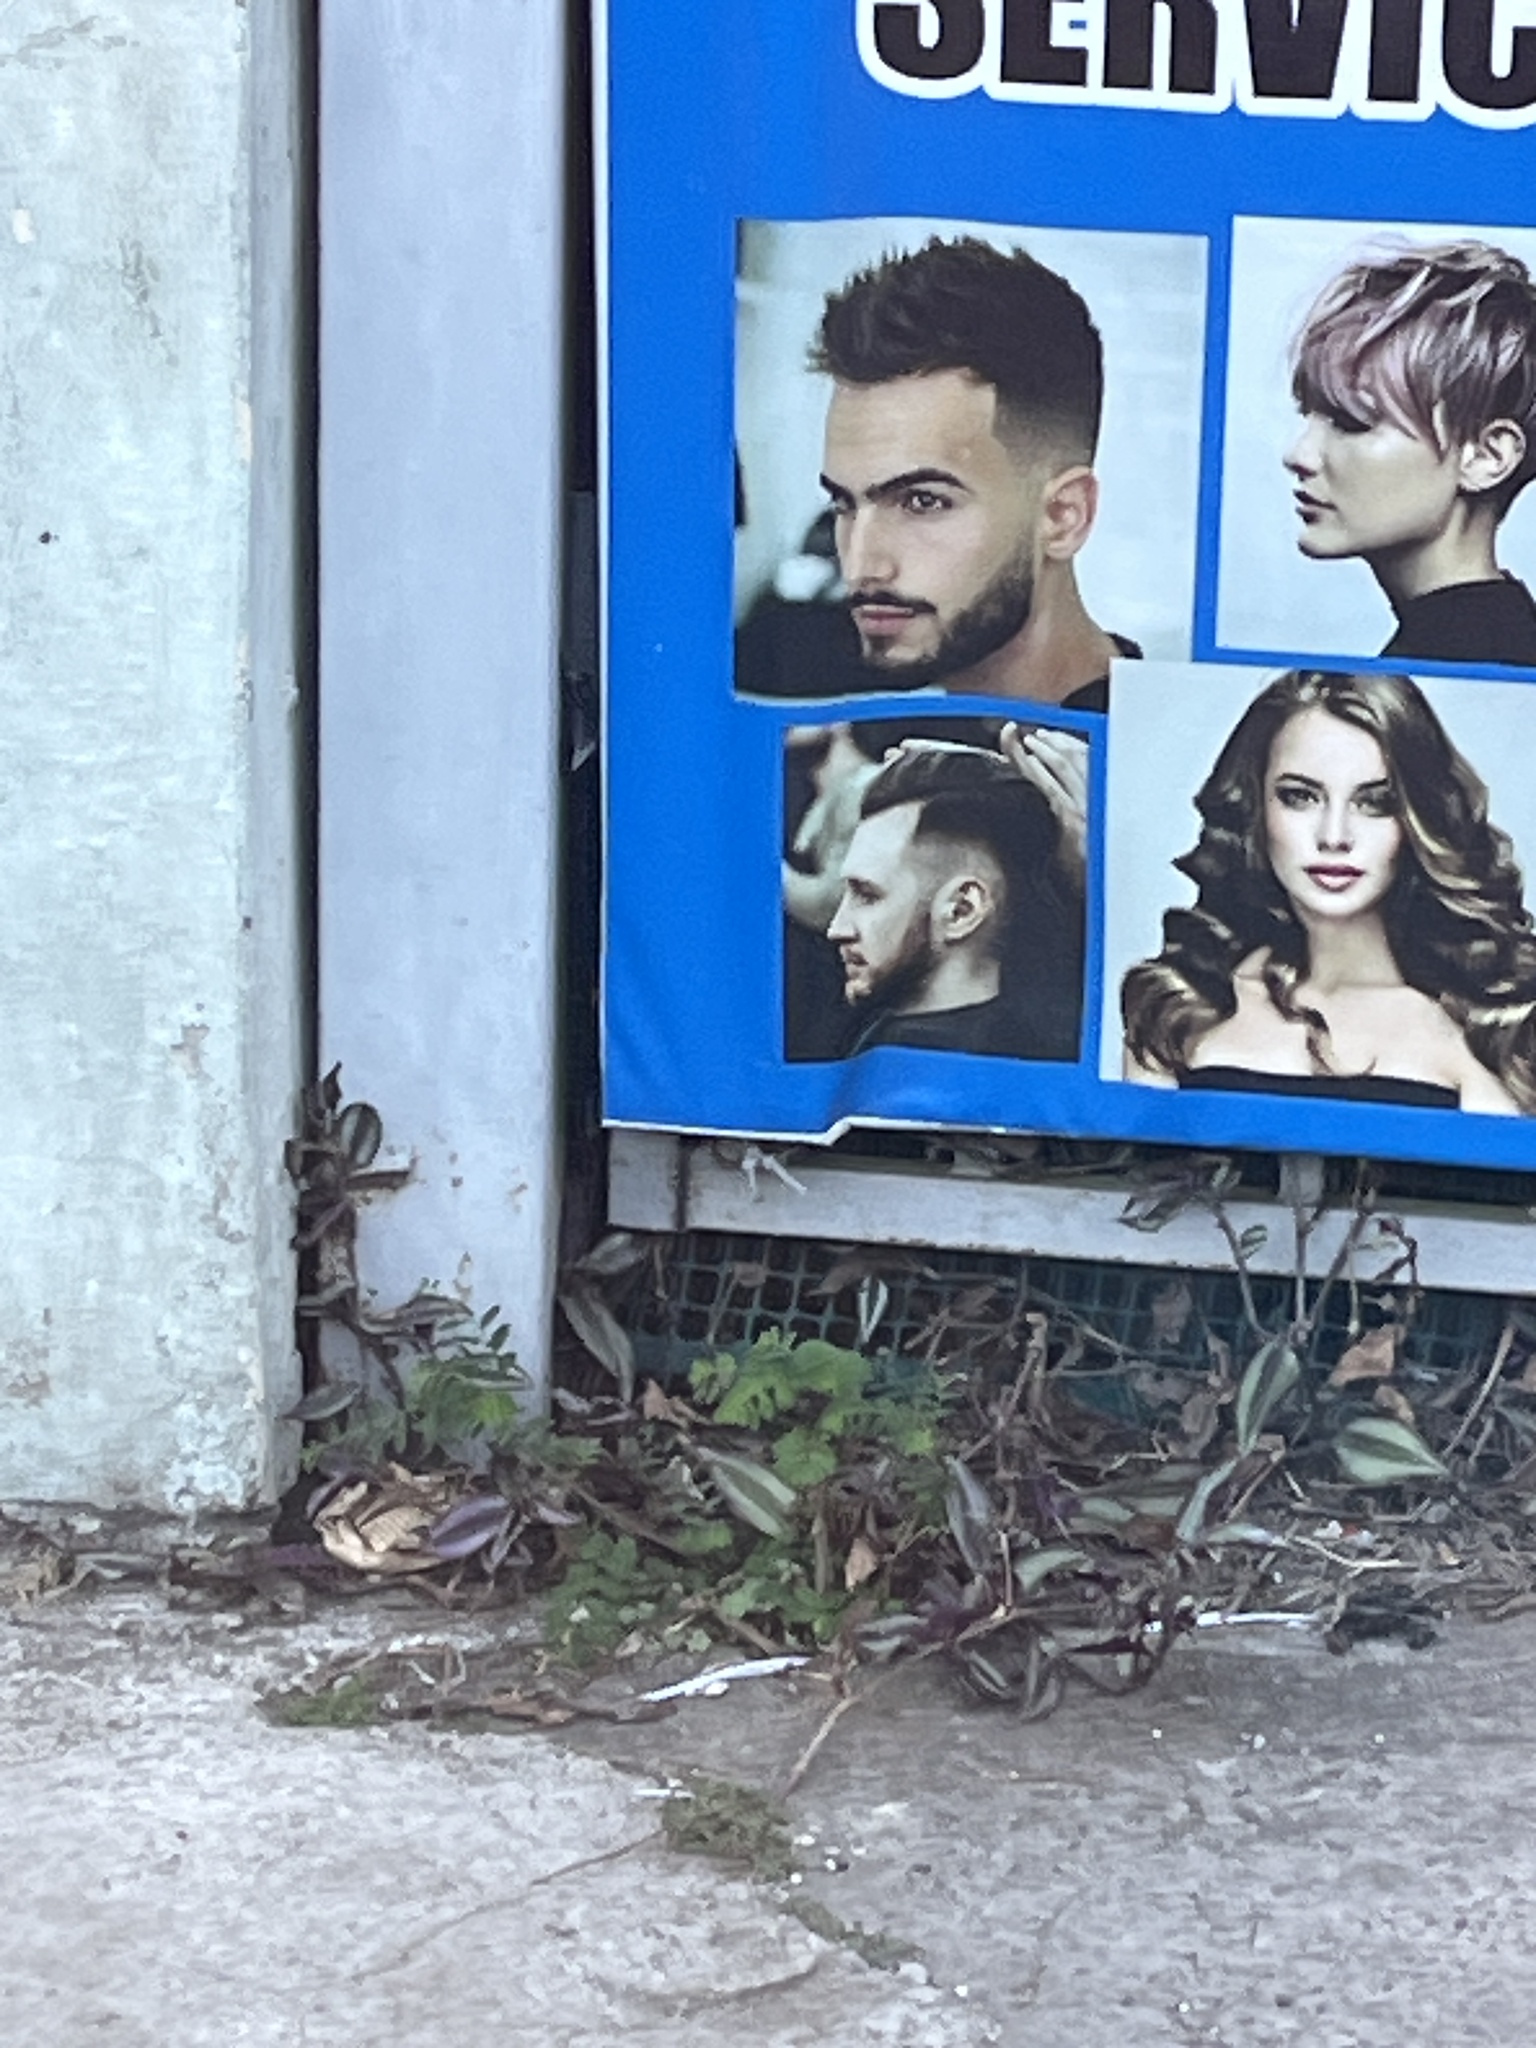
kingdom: Plantae
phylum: Tracheophyta
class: Liliopsida
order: Commelinales
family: Commelinaceae
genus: Tradescantia
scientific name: Tradescantia zebrina
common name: Inchplant
